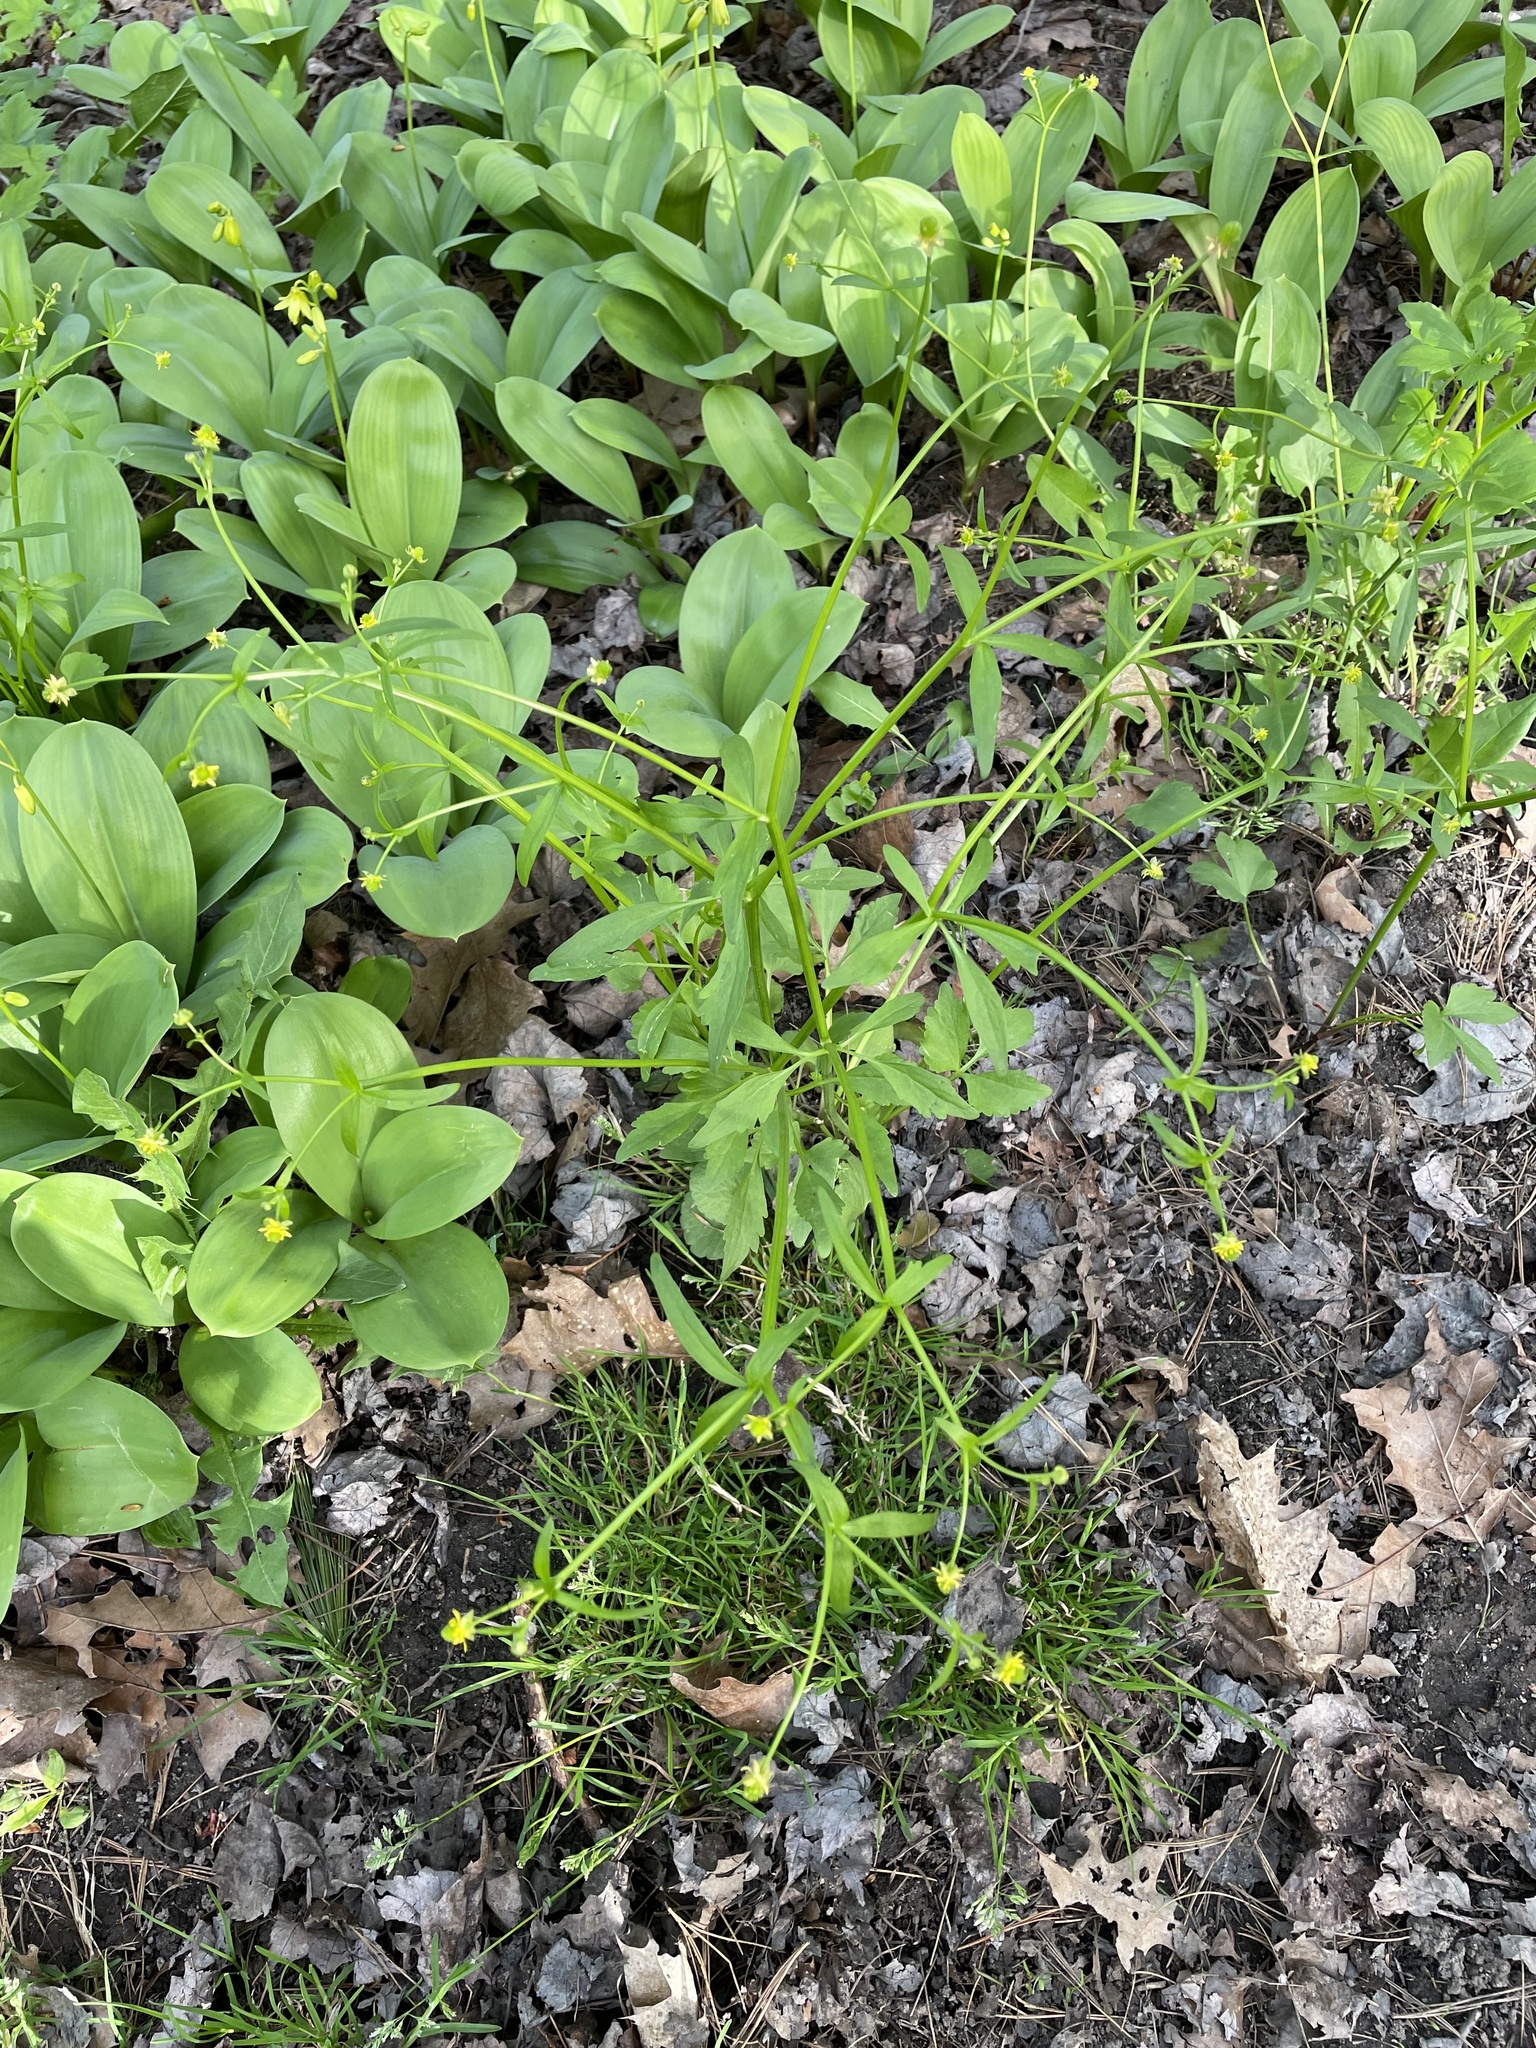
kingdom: Plantae
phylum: Tracheophyta
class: Magnoliopsida
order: Ranunculales
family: Ranunculaceae
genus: Ranunculus
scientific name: Ranunculus abortivus
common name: Early wood buttercup
